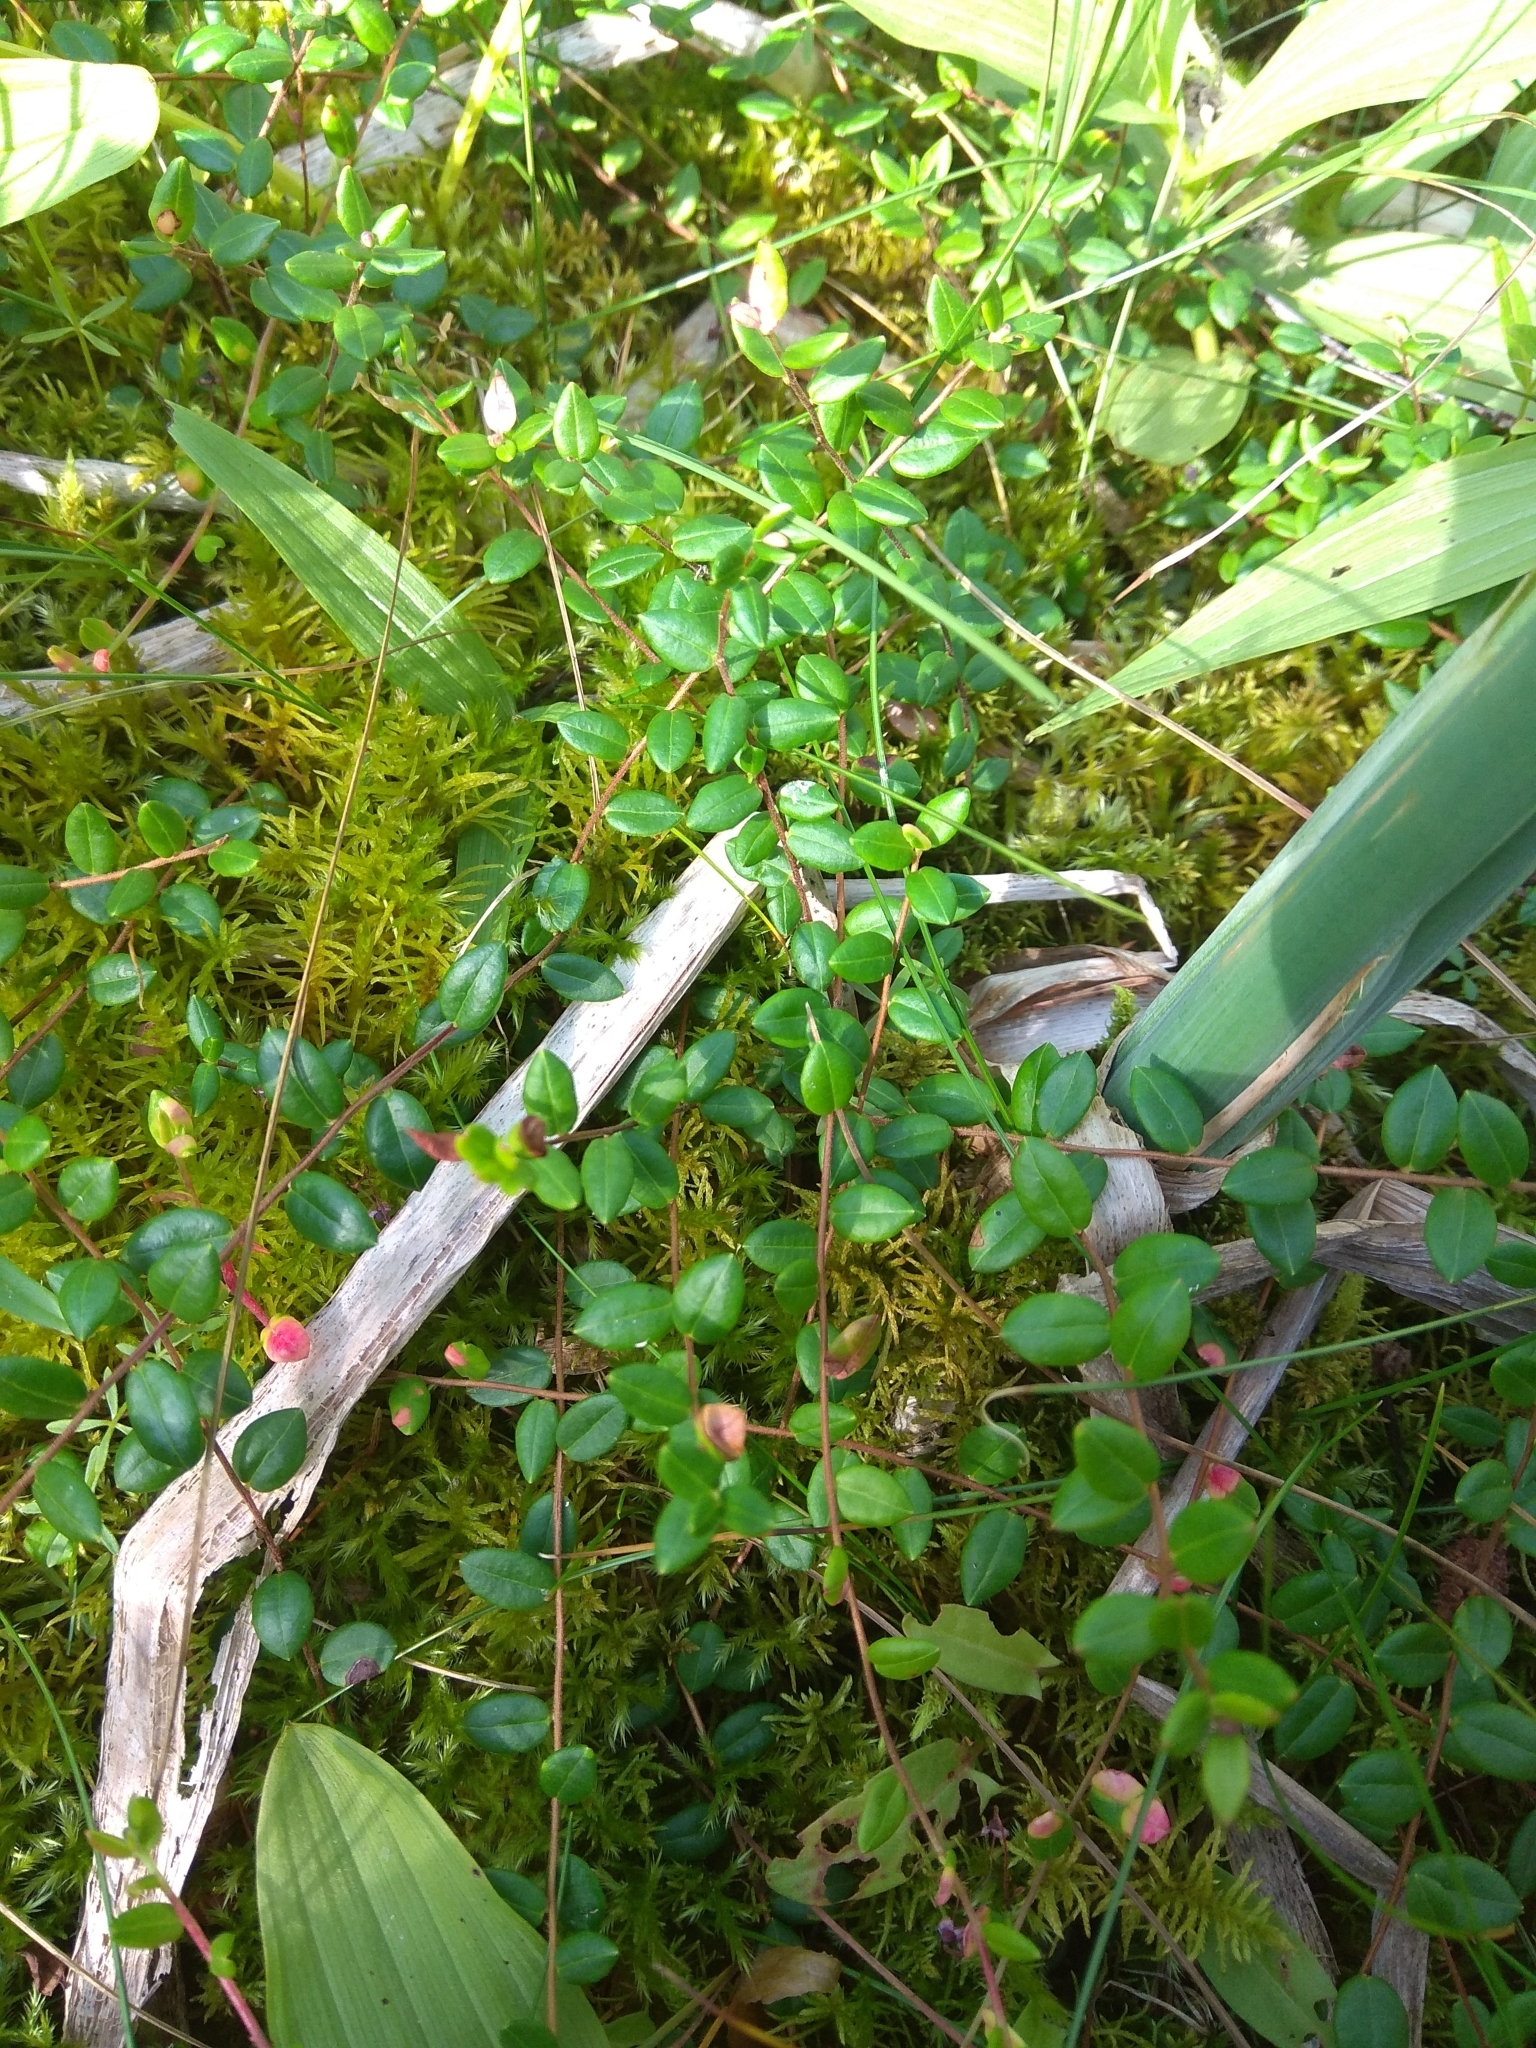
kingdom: Plantae
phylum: Tracheophyta
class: Magnoliopsida
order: Ericales
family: Ericaceae
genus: Vaccinium
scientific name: Vaccinium oxycoccos
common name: Cranberry
